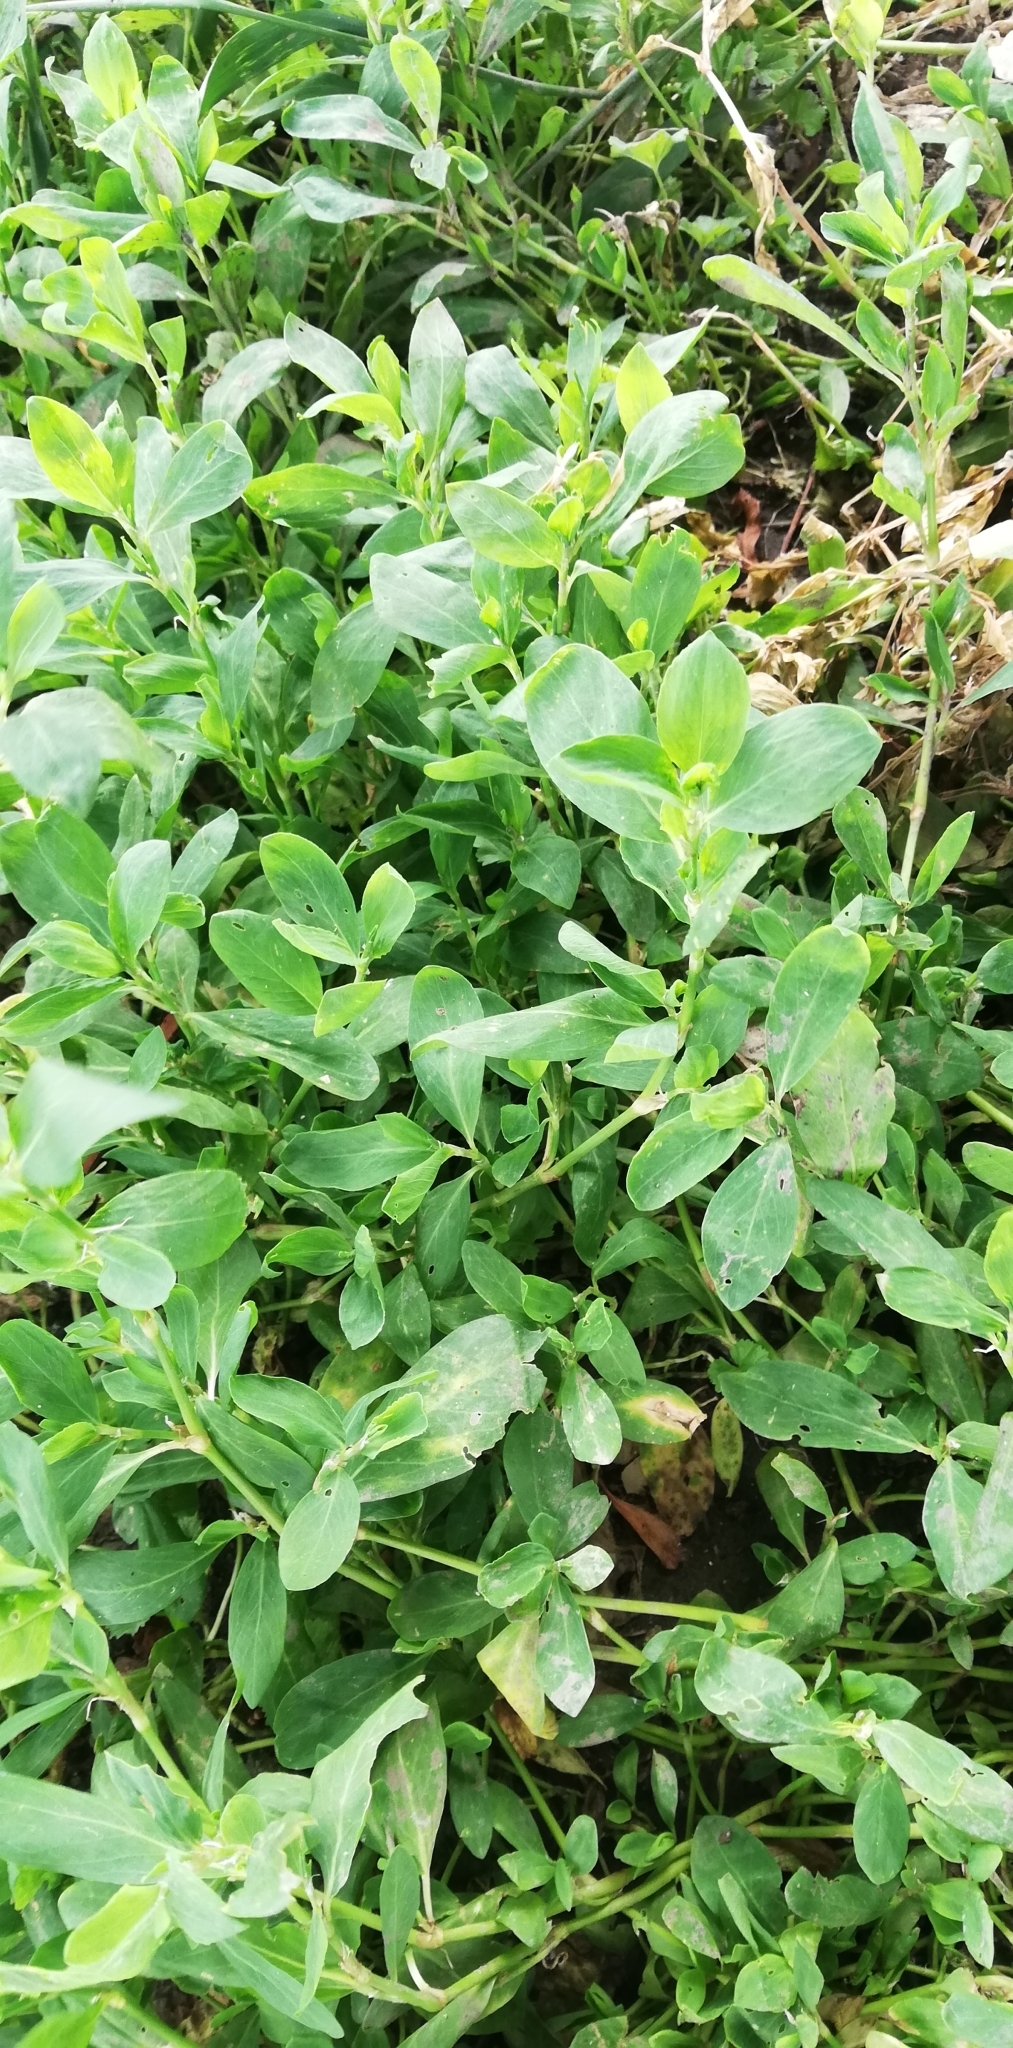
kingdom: Plantae
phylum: Tracheophyta
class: Magnoliopsida
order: Caryophyllales
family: Polygonaceae
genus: Polygonum
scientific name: Polygonum aviculare
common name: Prostrate knotweed
